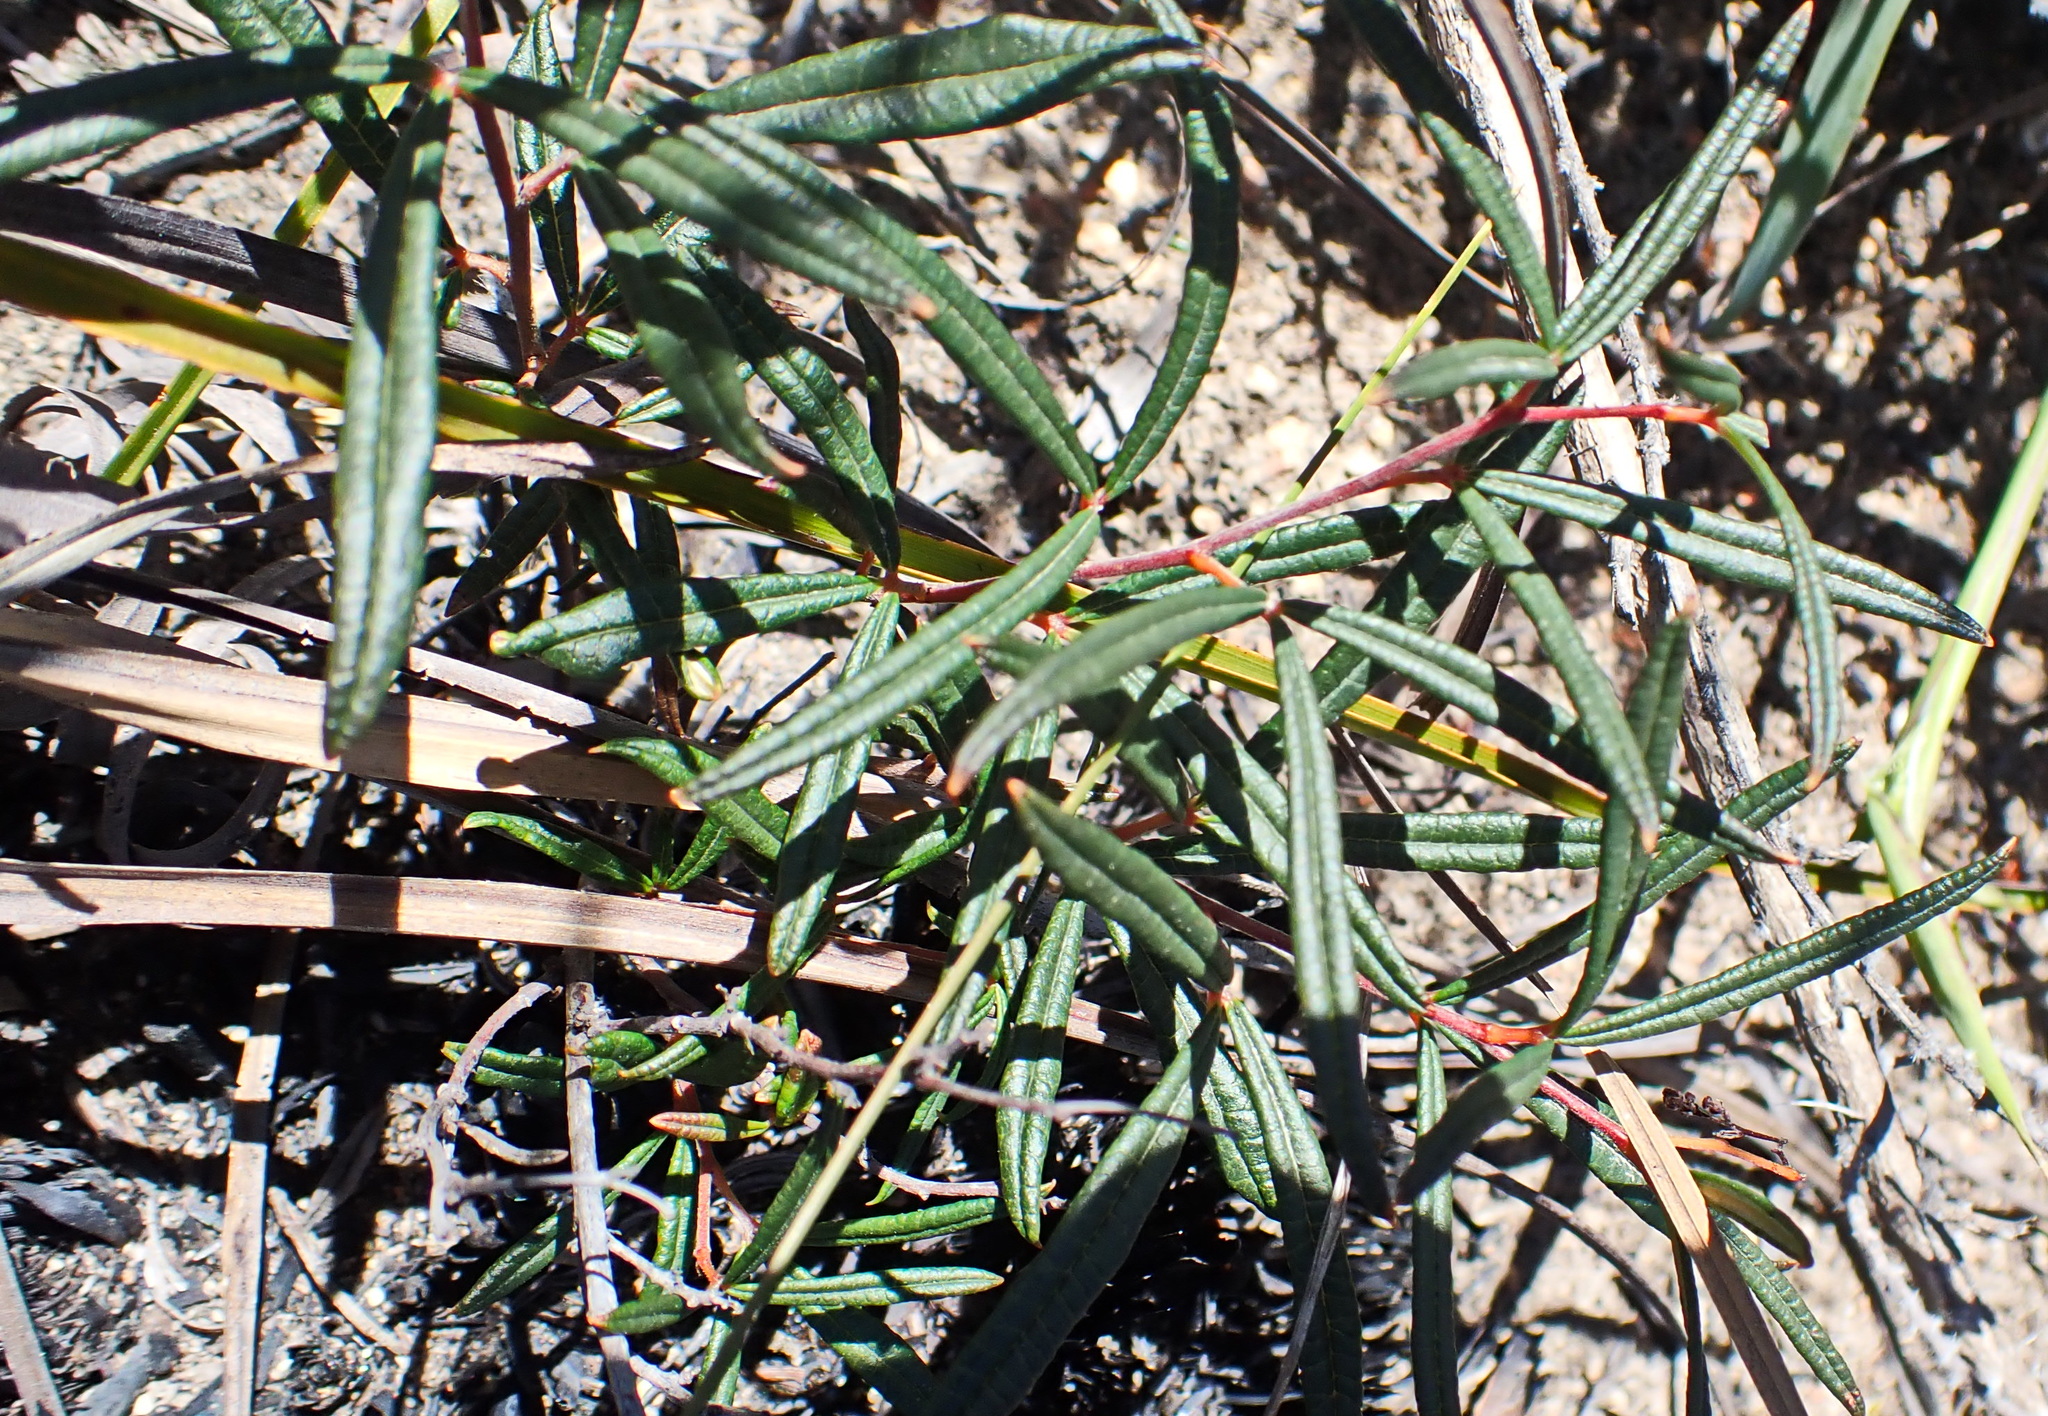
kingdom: Plantae
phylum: Tracheophyta
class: Magnoliopsida
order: Sapindales
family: Anacardiaceae
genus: Searsia
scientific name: Searsia rosmarinifolia
